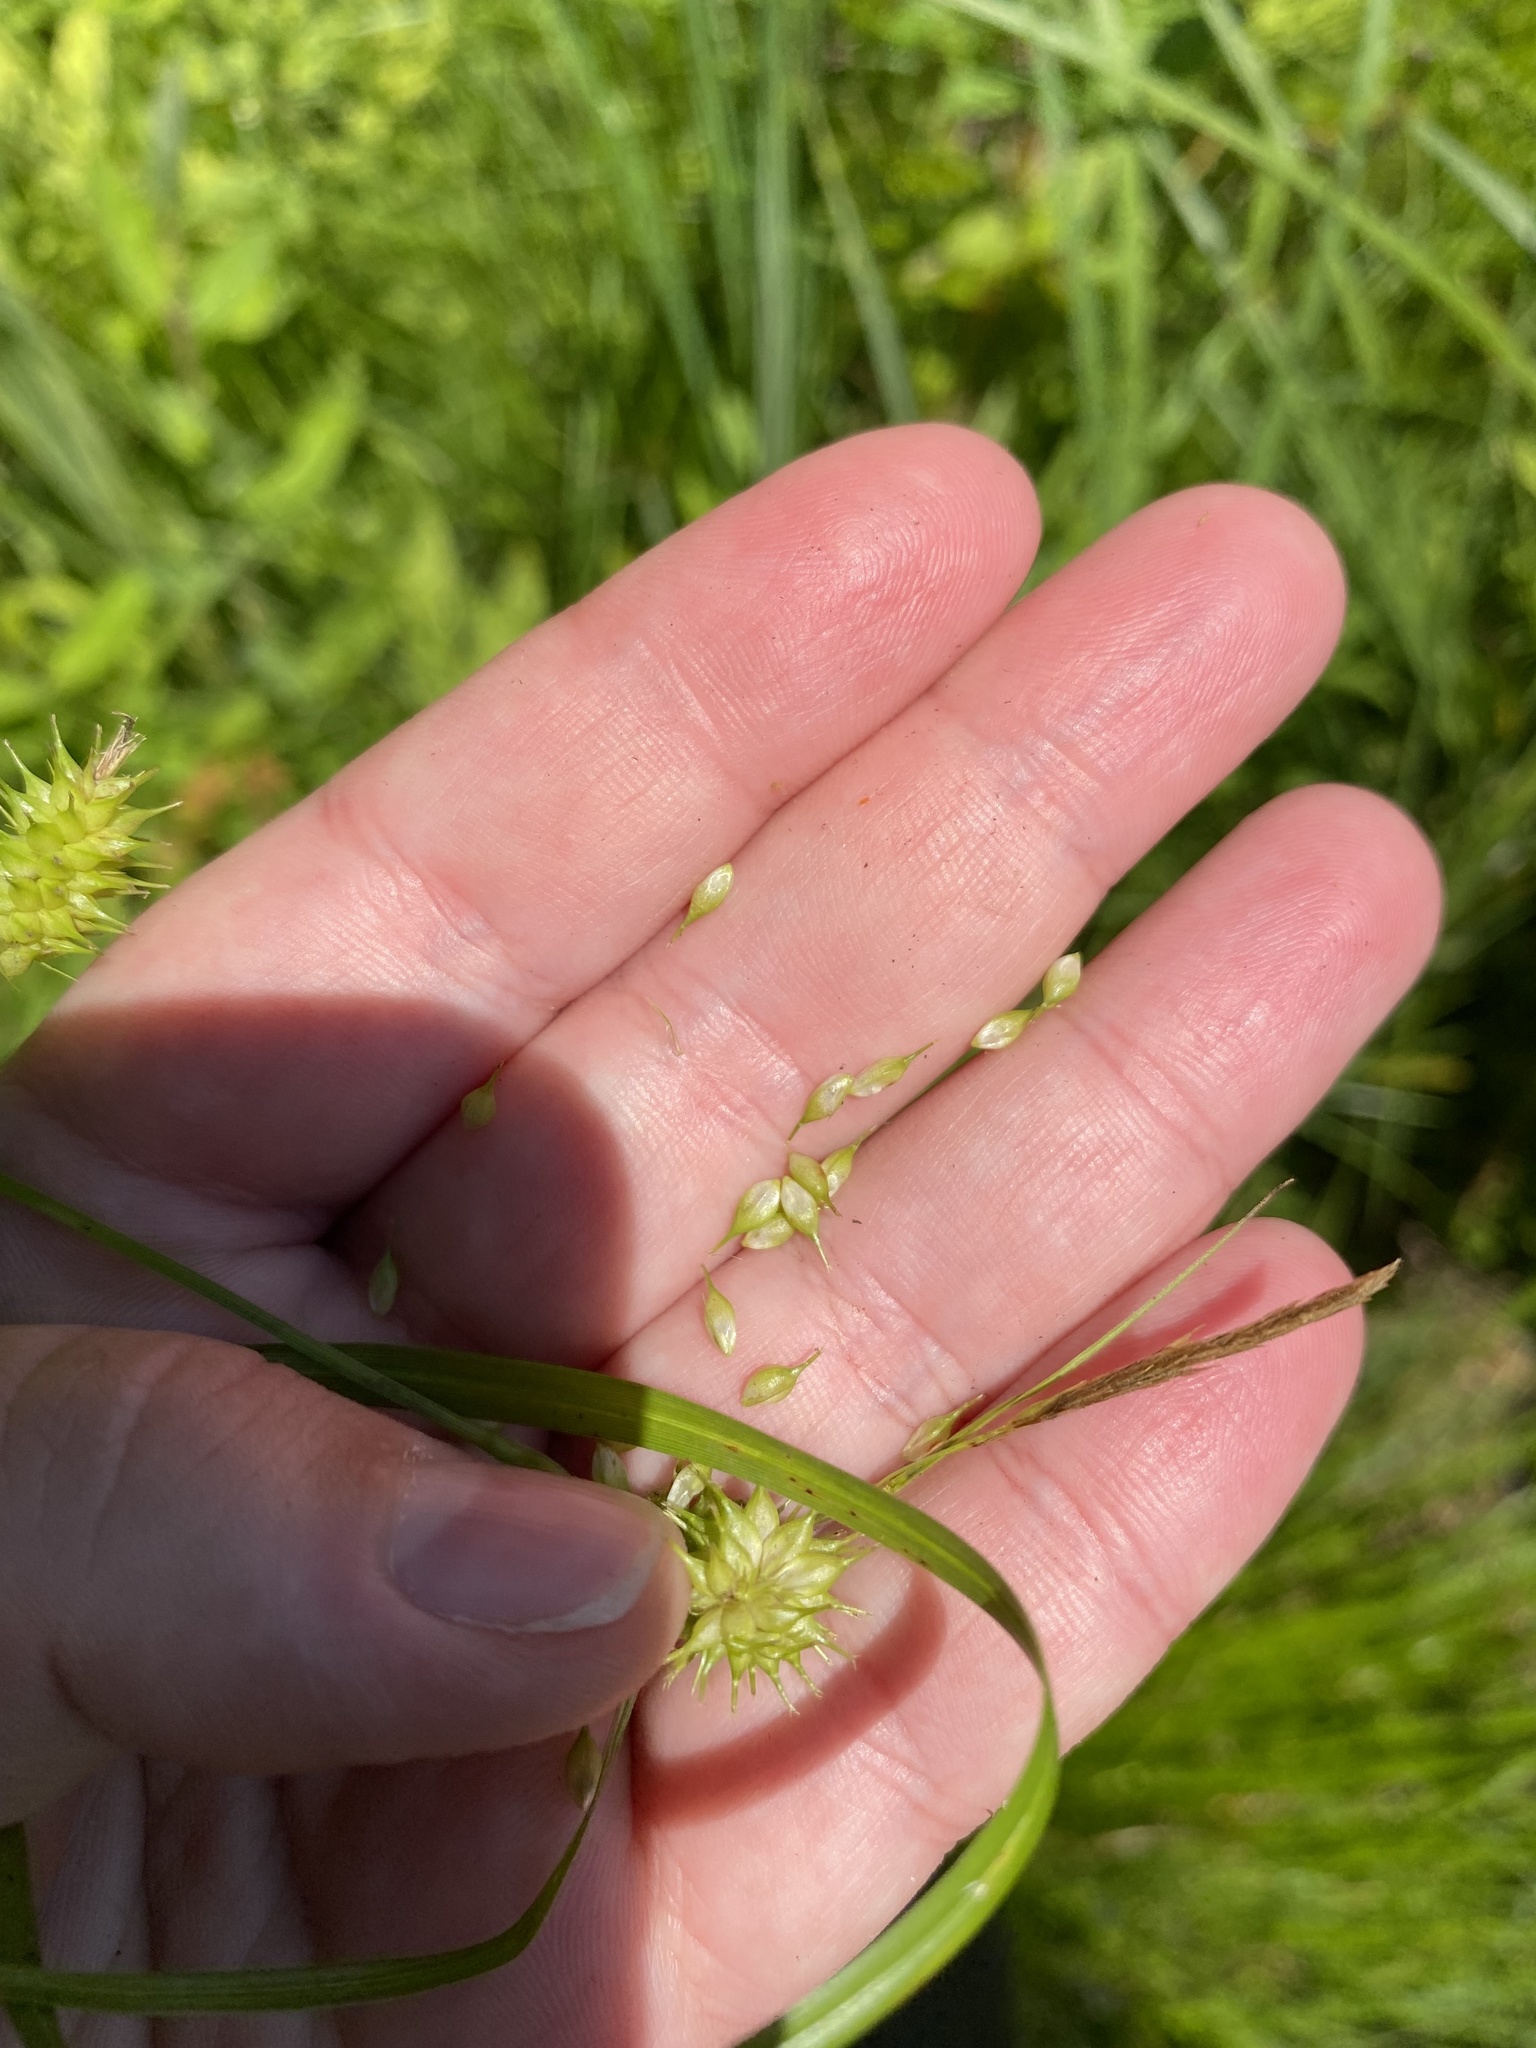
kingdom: Plantae
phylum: Tracheophyta
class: Liliopsida
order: Poales
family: Cyperaceae
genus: Carex
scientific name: Carex hystericina
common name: Bottlebrush sedge
